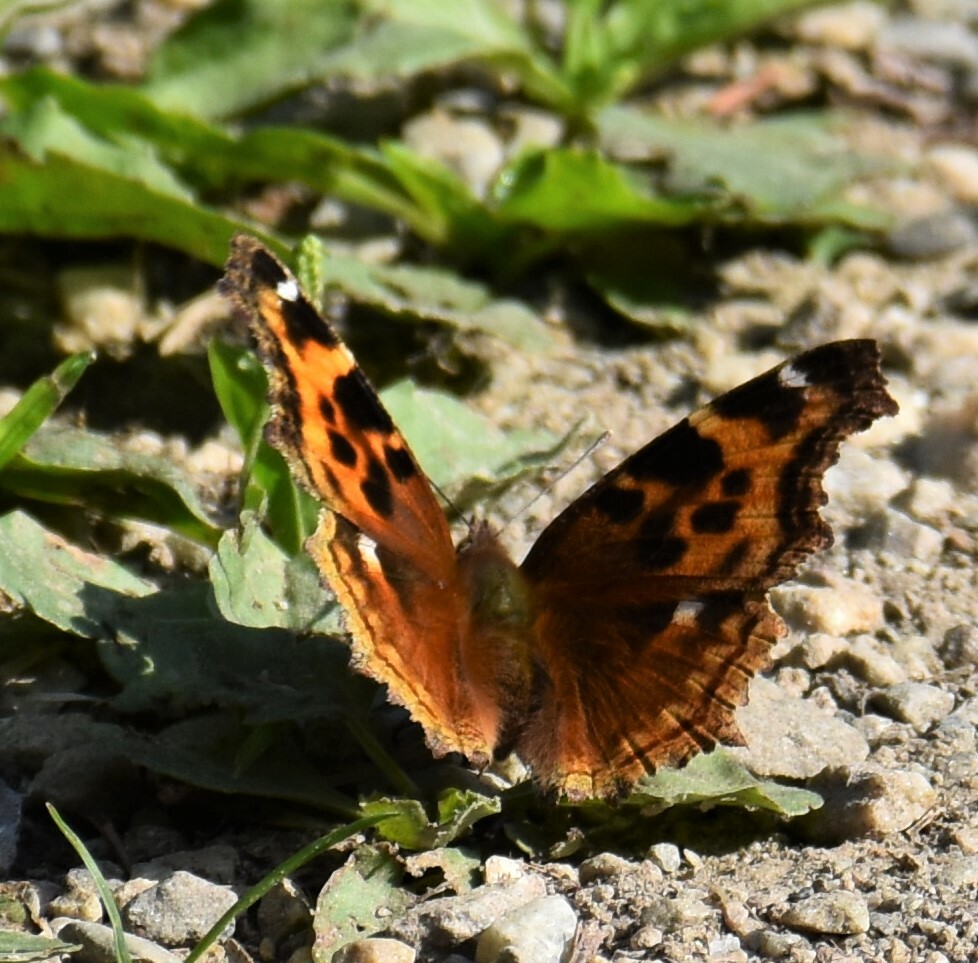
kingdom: Animalia
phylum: Arthropoda
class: Insecta
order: Lepidoptera
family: Nymphalidae
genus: Polygonia
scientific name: Polygonia vaualbum
